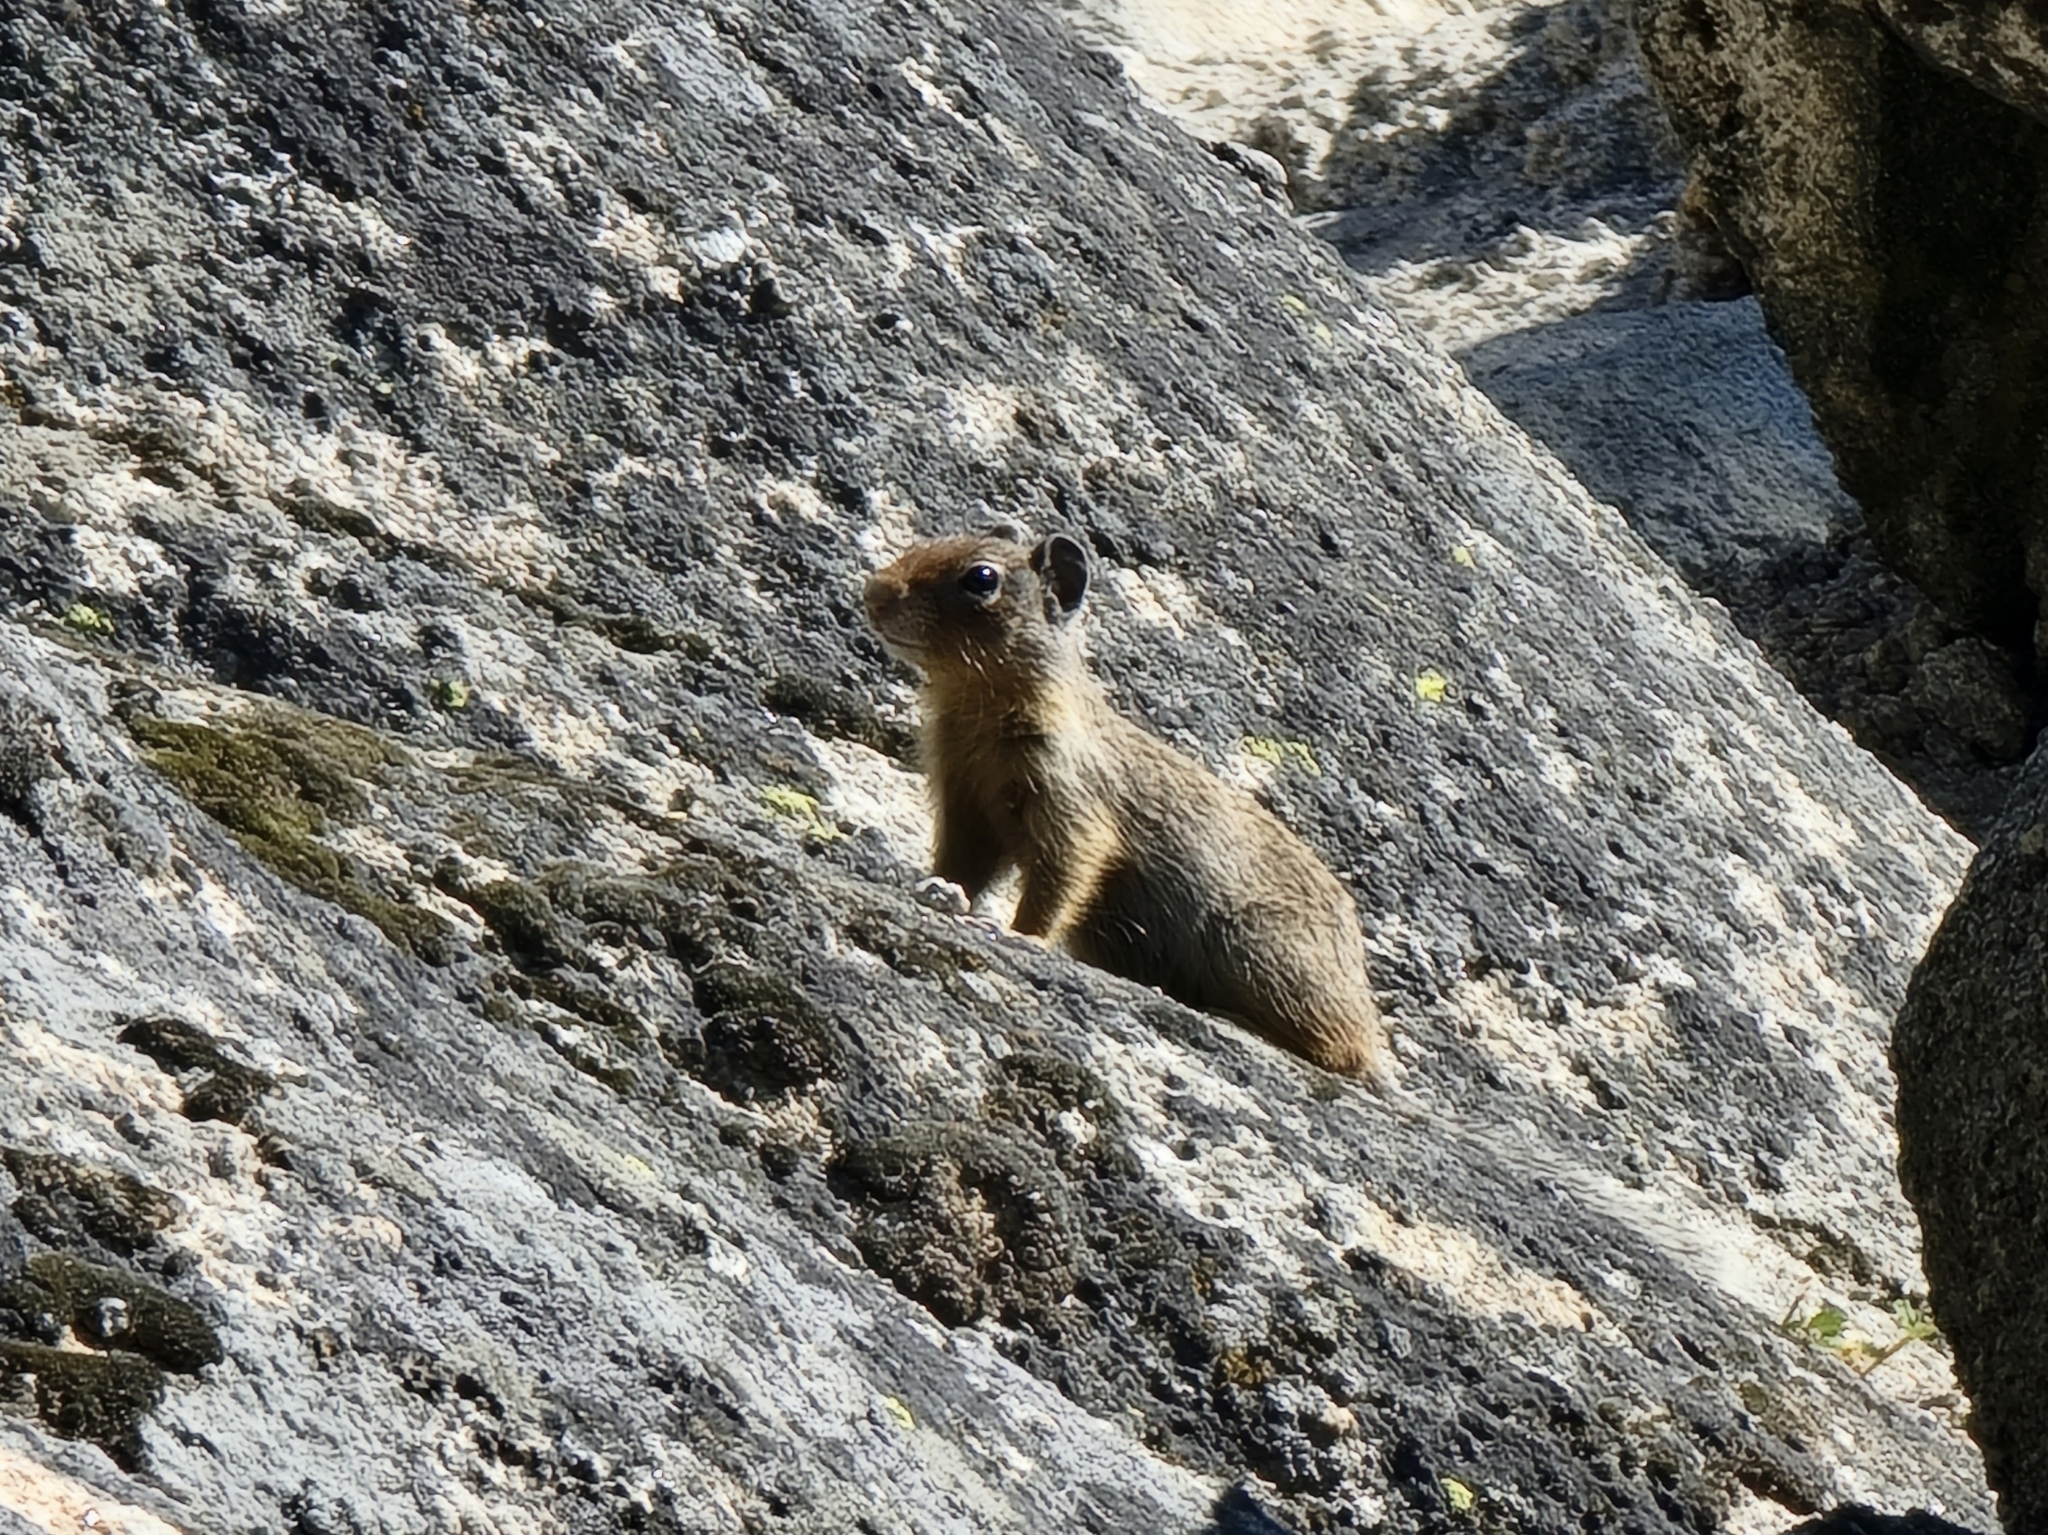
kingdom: Animalia
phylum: Chordata
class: Mammalia
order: Rodentia
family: Sciuridae
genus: Urocitellus
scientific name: Urocitellus columbianus
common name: Columbian ground squirrel
